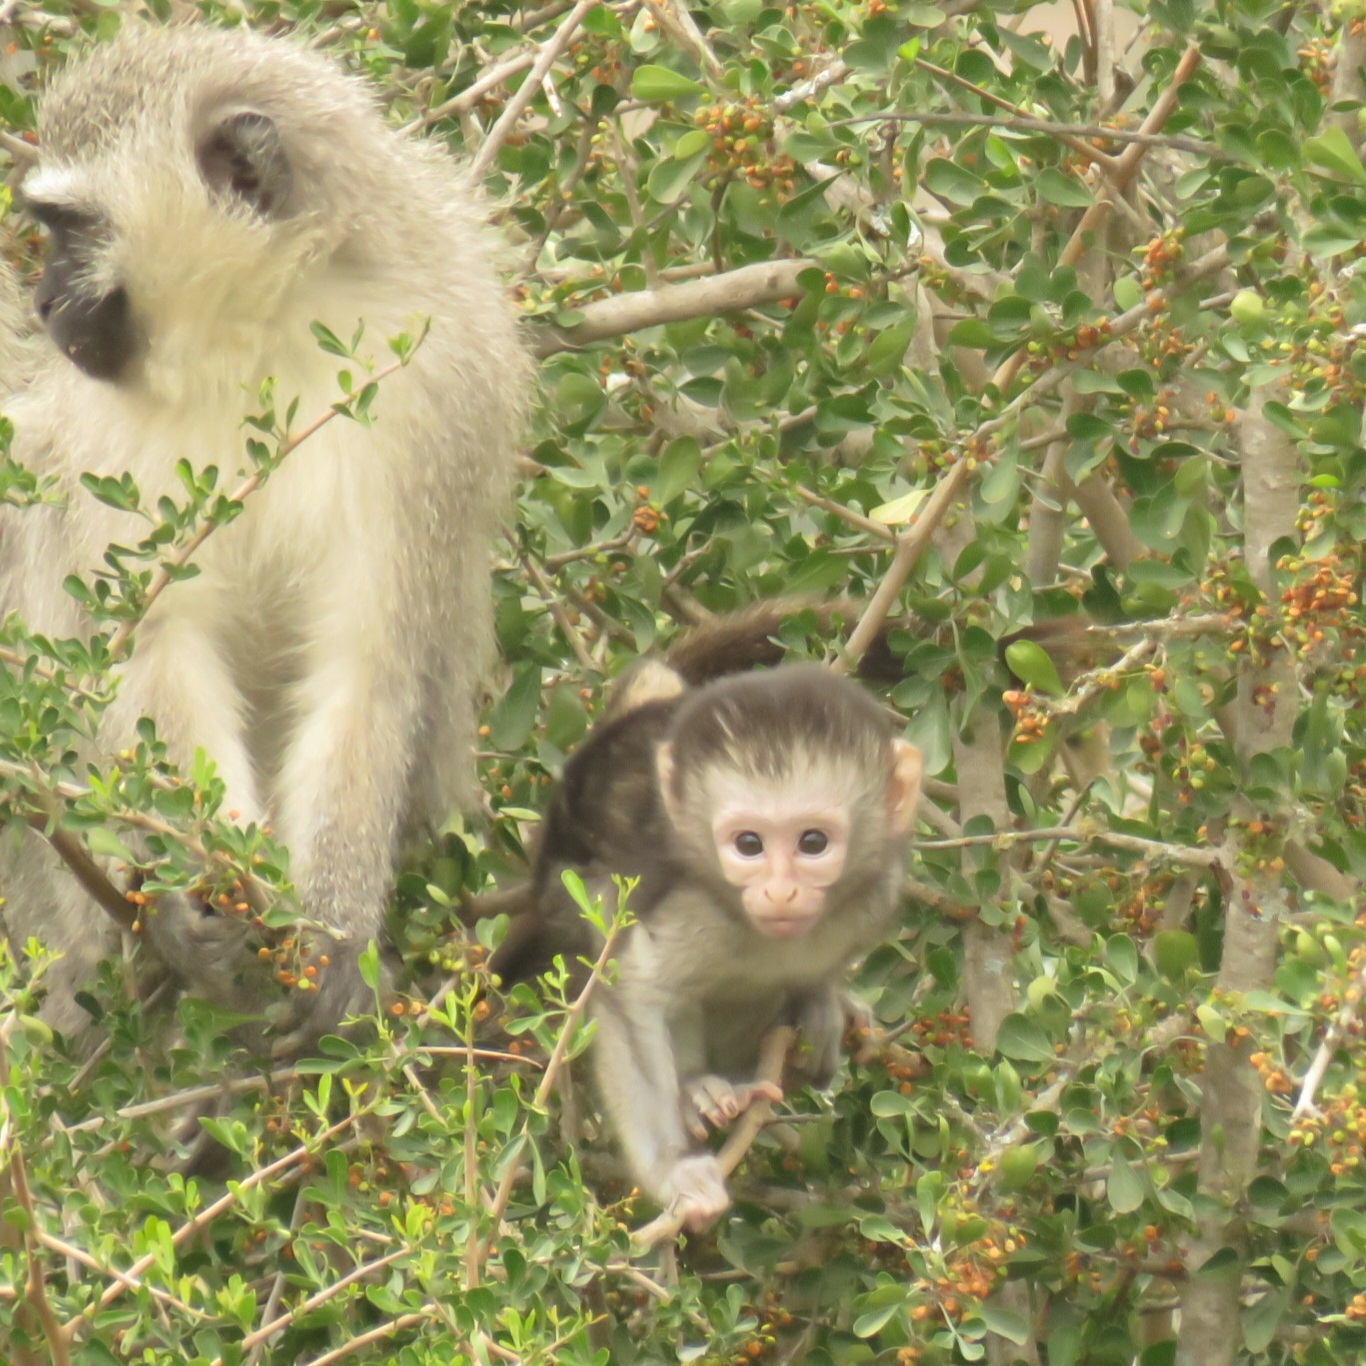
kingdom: Animalia
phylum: Chordata
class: Mammalia
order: Primates
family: Cercopithecidae
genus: Chlorocebus
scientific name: Chlorocebus pygerythrus
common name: Vervet monkey
